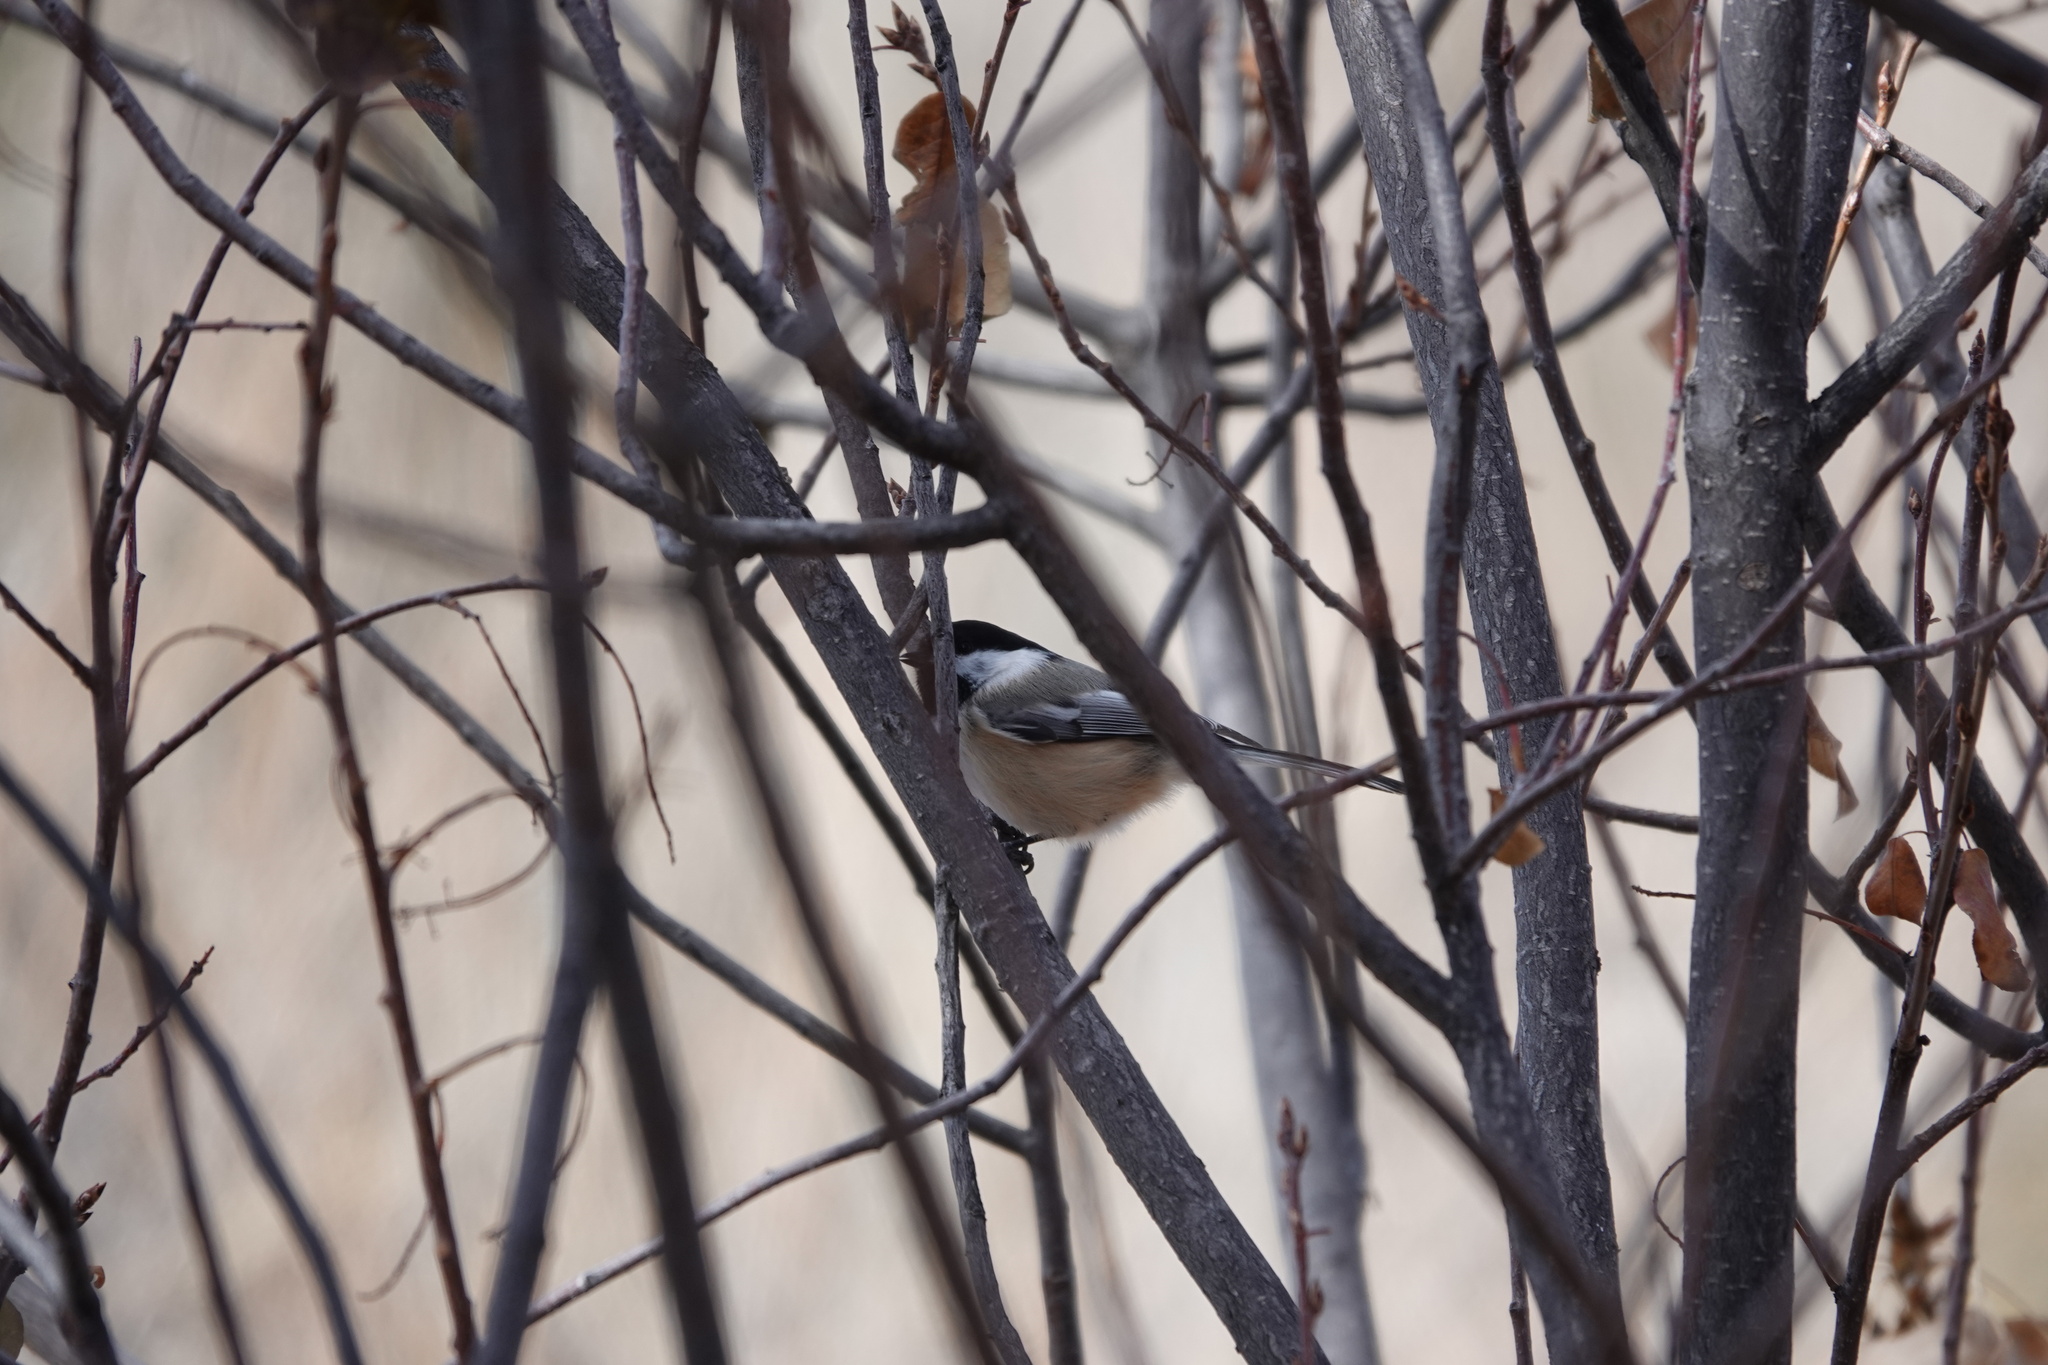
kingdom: Animalia
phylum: Chordata
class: Aves
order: Passeriformes
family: Paridae
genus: Poecile
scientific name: Poecile atricapillus
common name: Black-capped chickadee
